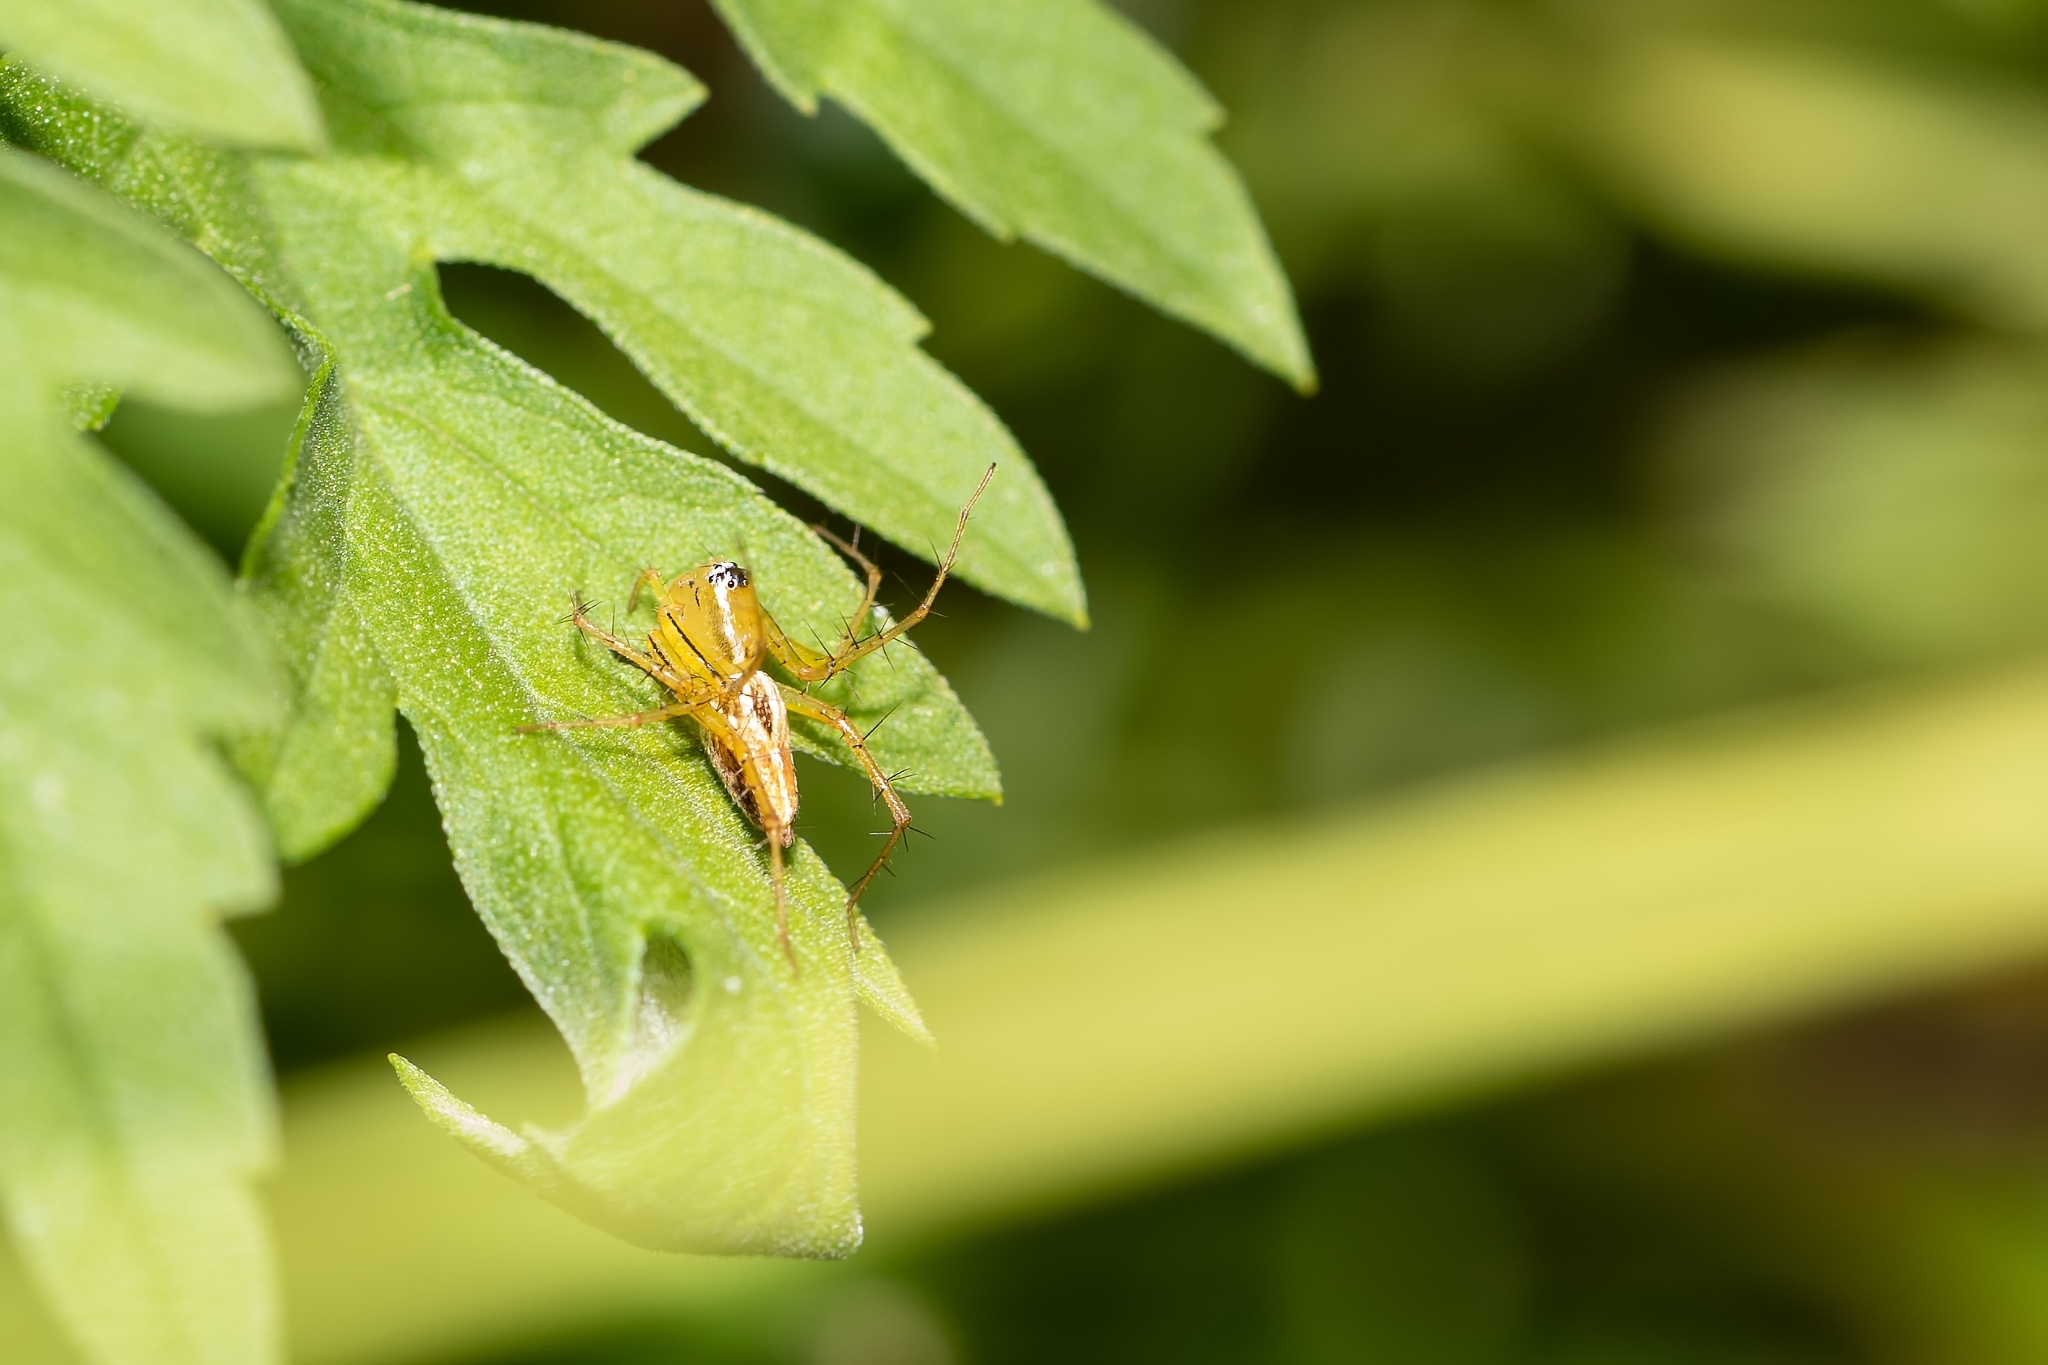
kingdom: Animalia
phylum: Arthropoda
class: Arachnida
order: Araneae
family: Oxyopidae
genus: Oxyopes
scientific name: Oxyopes salticus
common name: Lynx spiders
